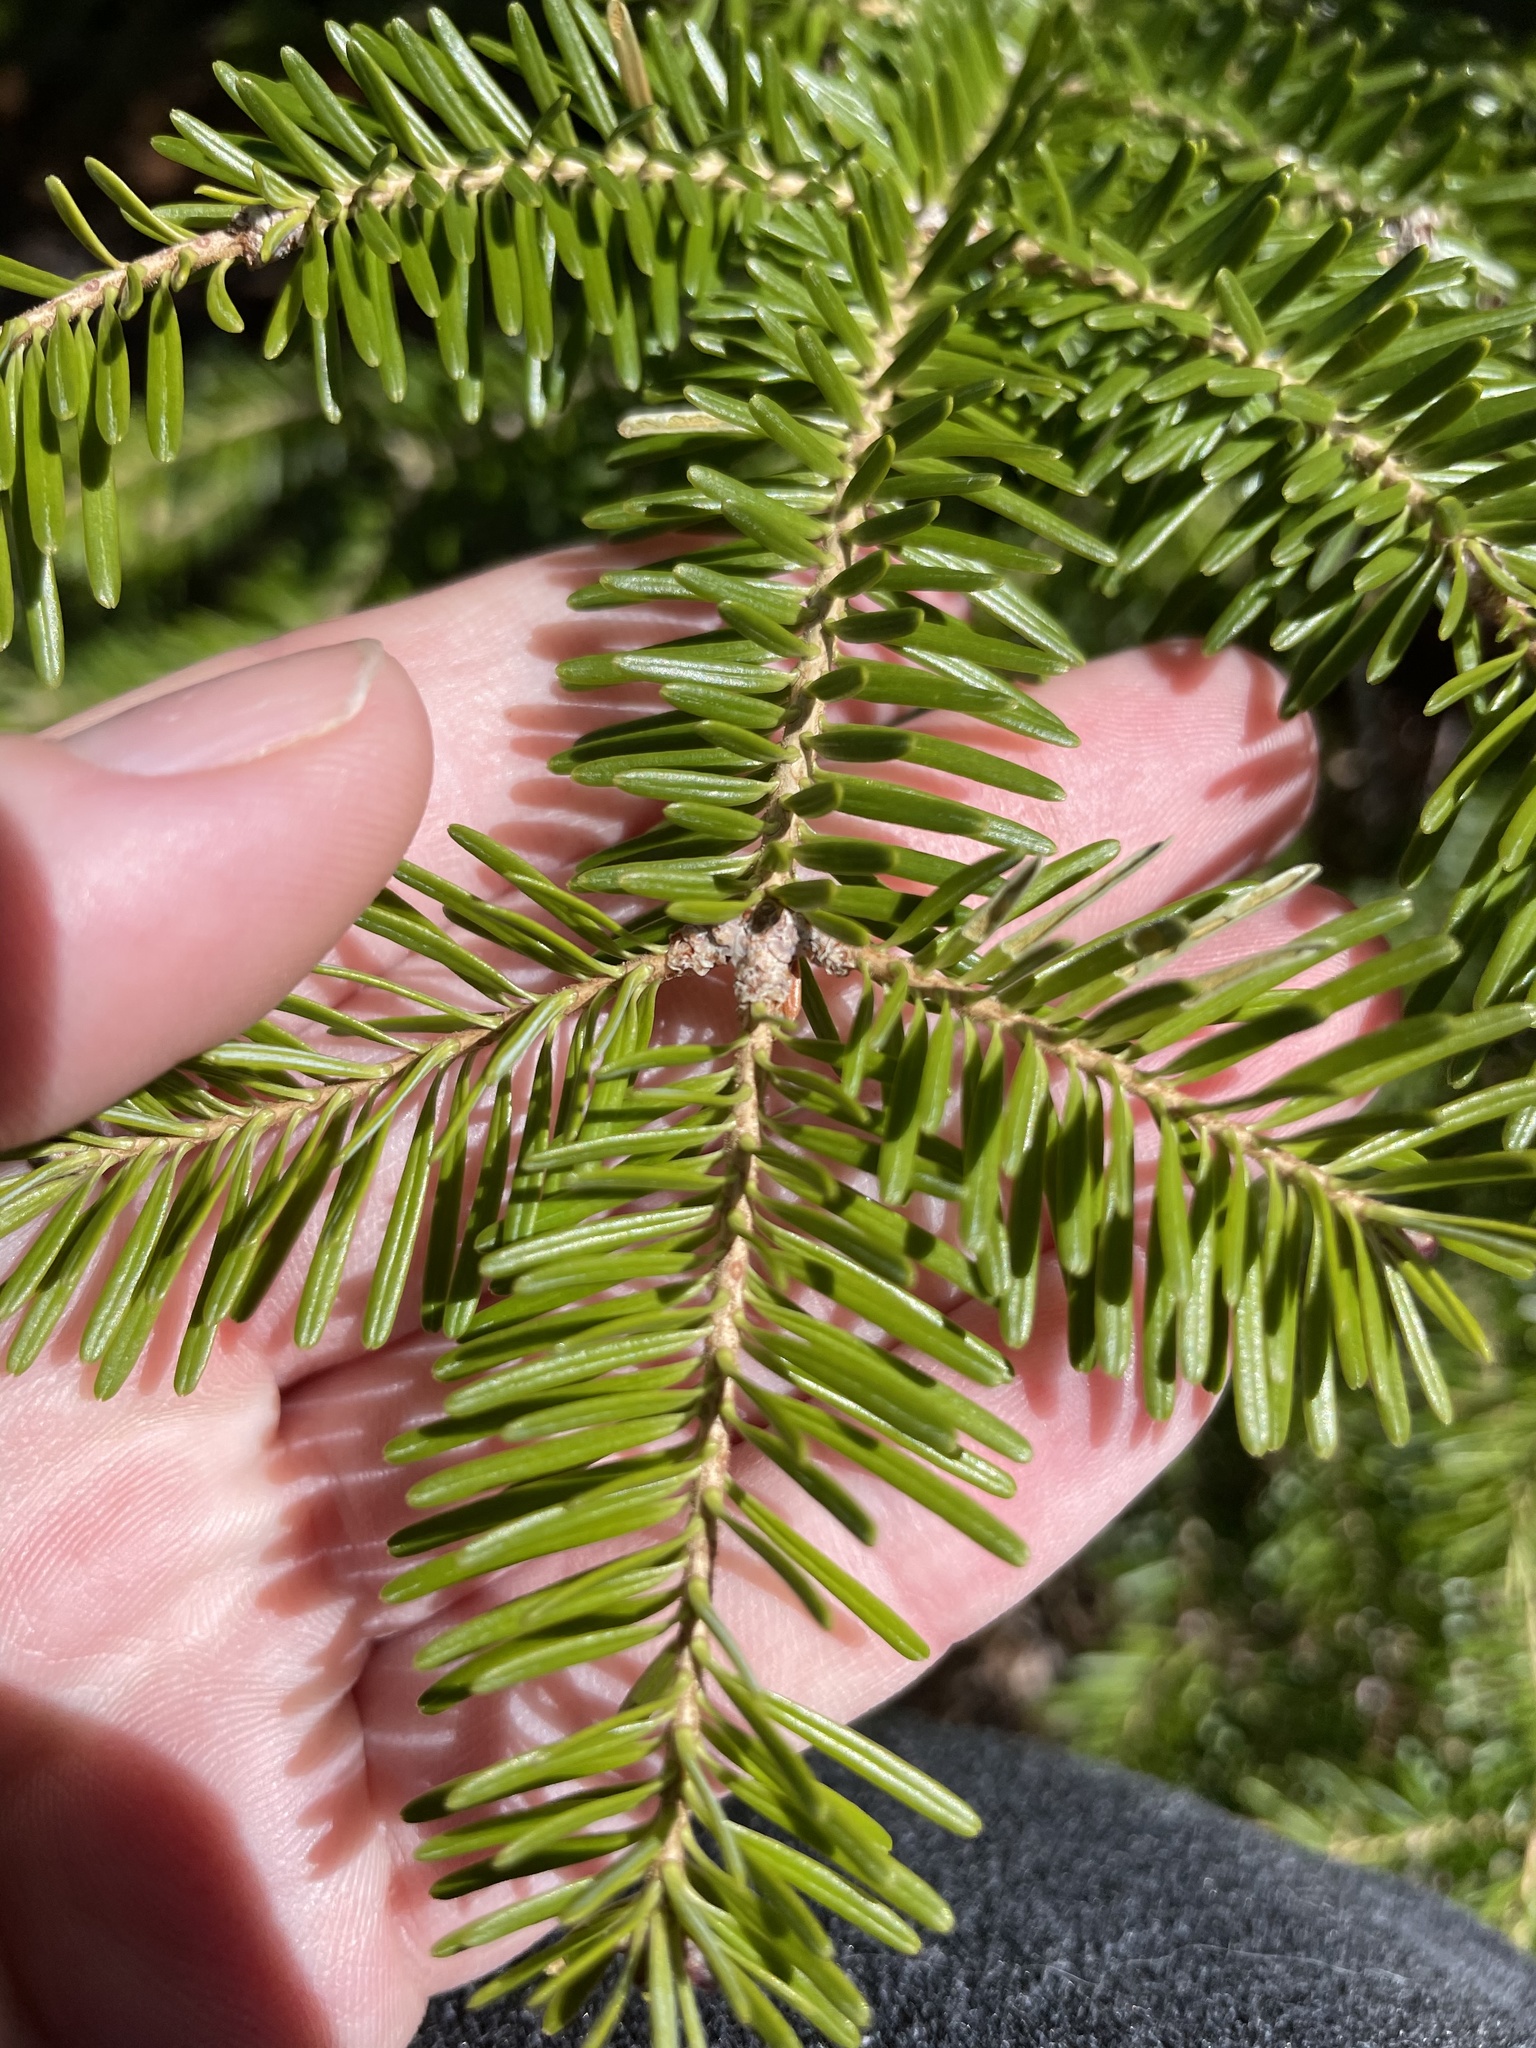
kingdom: Plantae
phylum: Tracheophyta
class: Pinopsida
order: Pinales
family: Pinaceae
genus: Abies
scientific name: Abies balsamea
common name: Balsam fir
